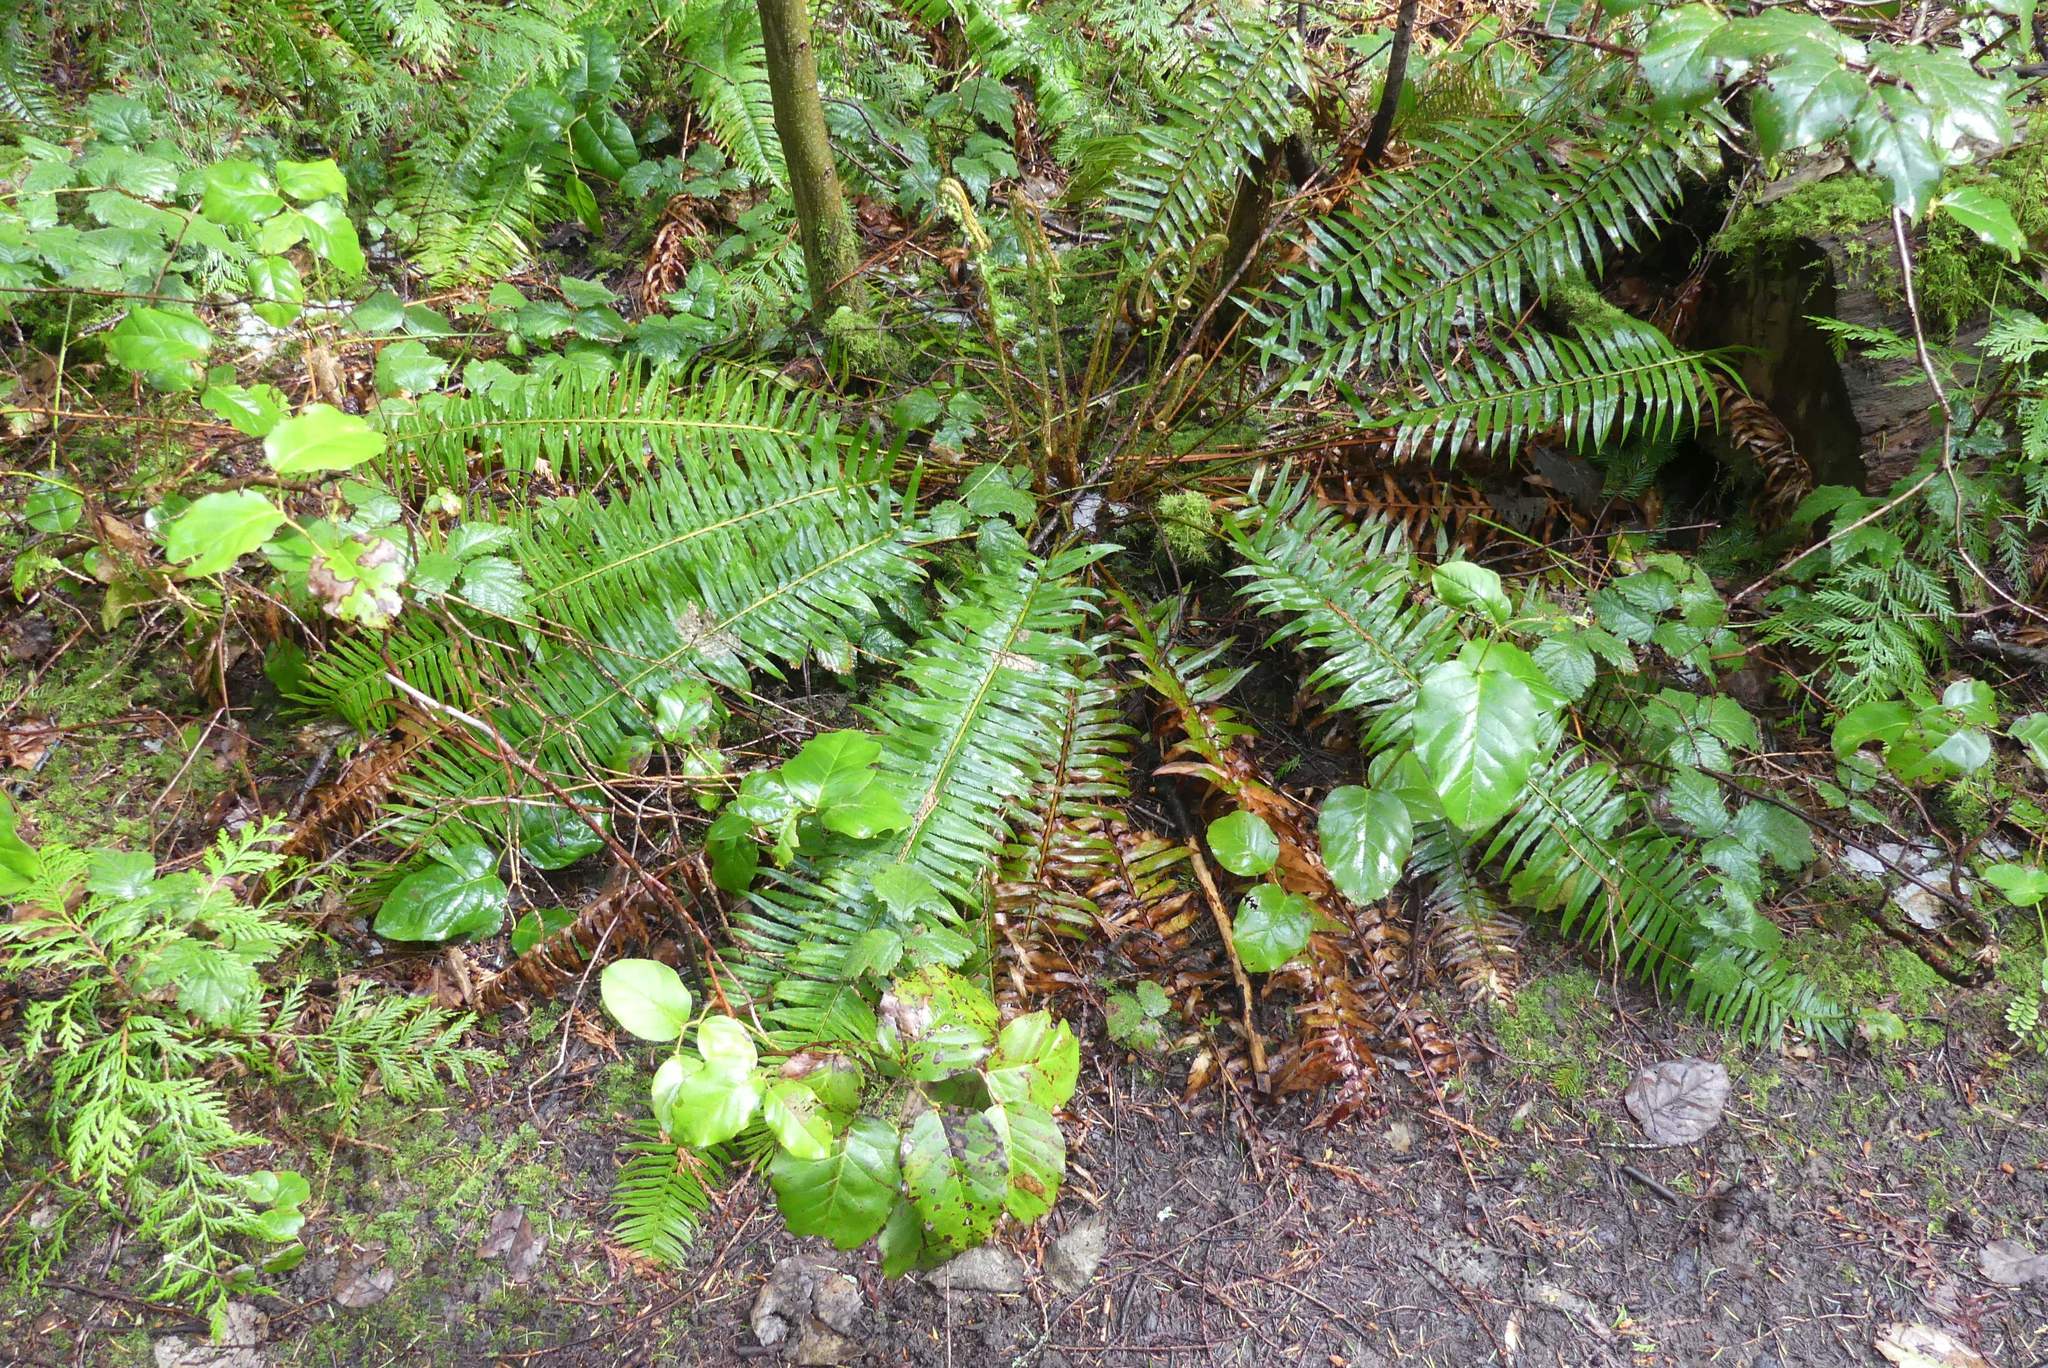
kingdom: Plantae
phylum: Tracheophyta
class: Polypodiopsida
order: Polypodiales
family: Dryopteridaceae
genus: Polystichum
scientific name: Polystichum munitum
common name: Western sword-fern
